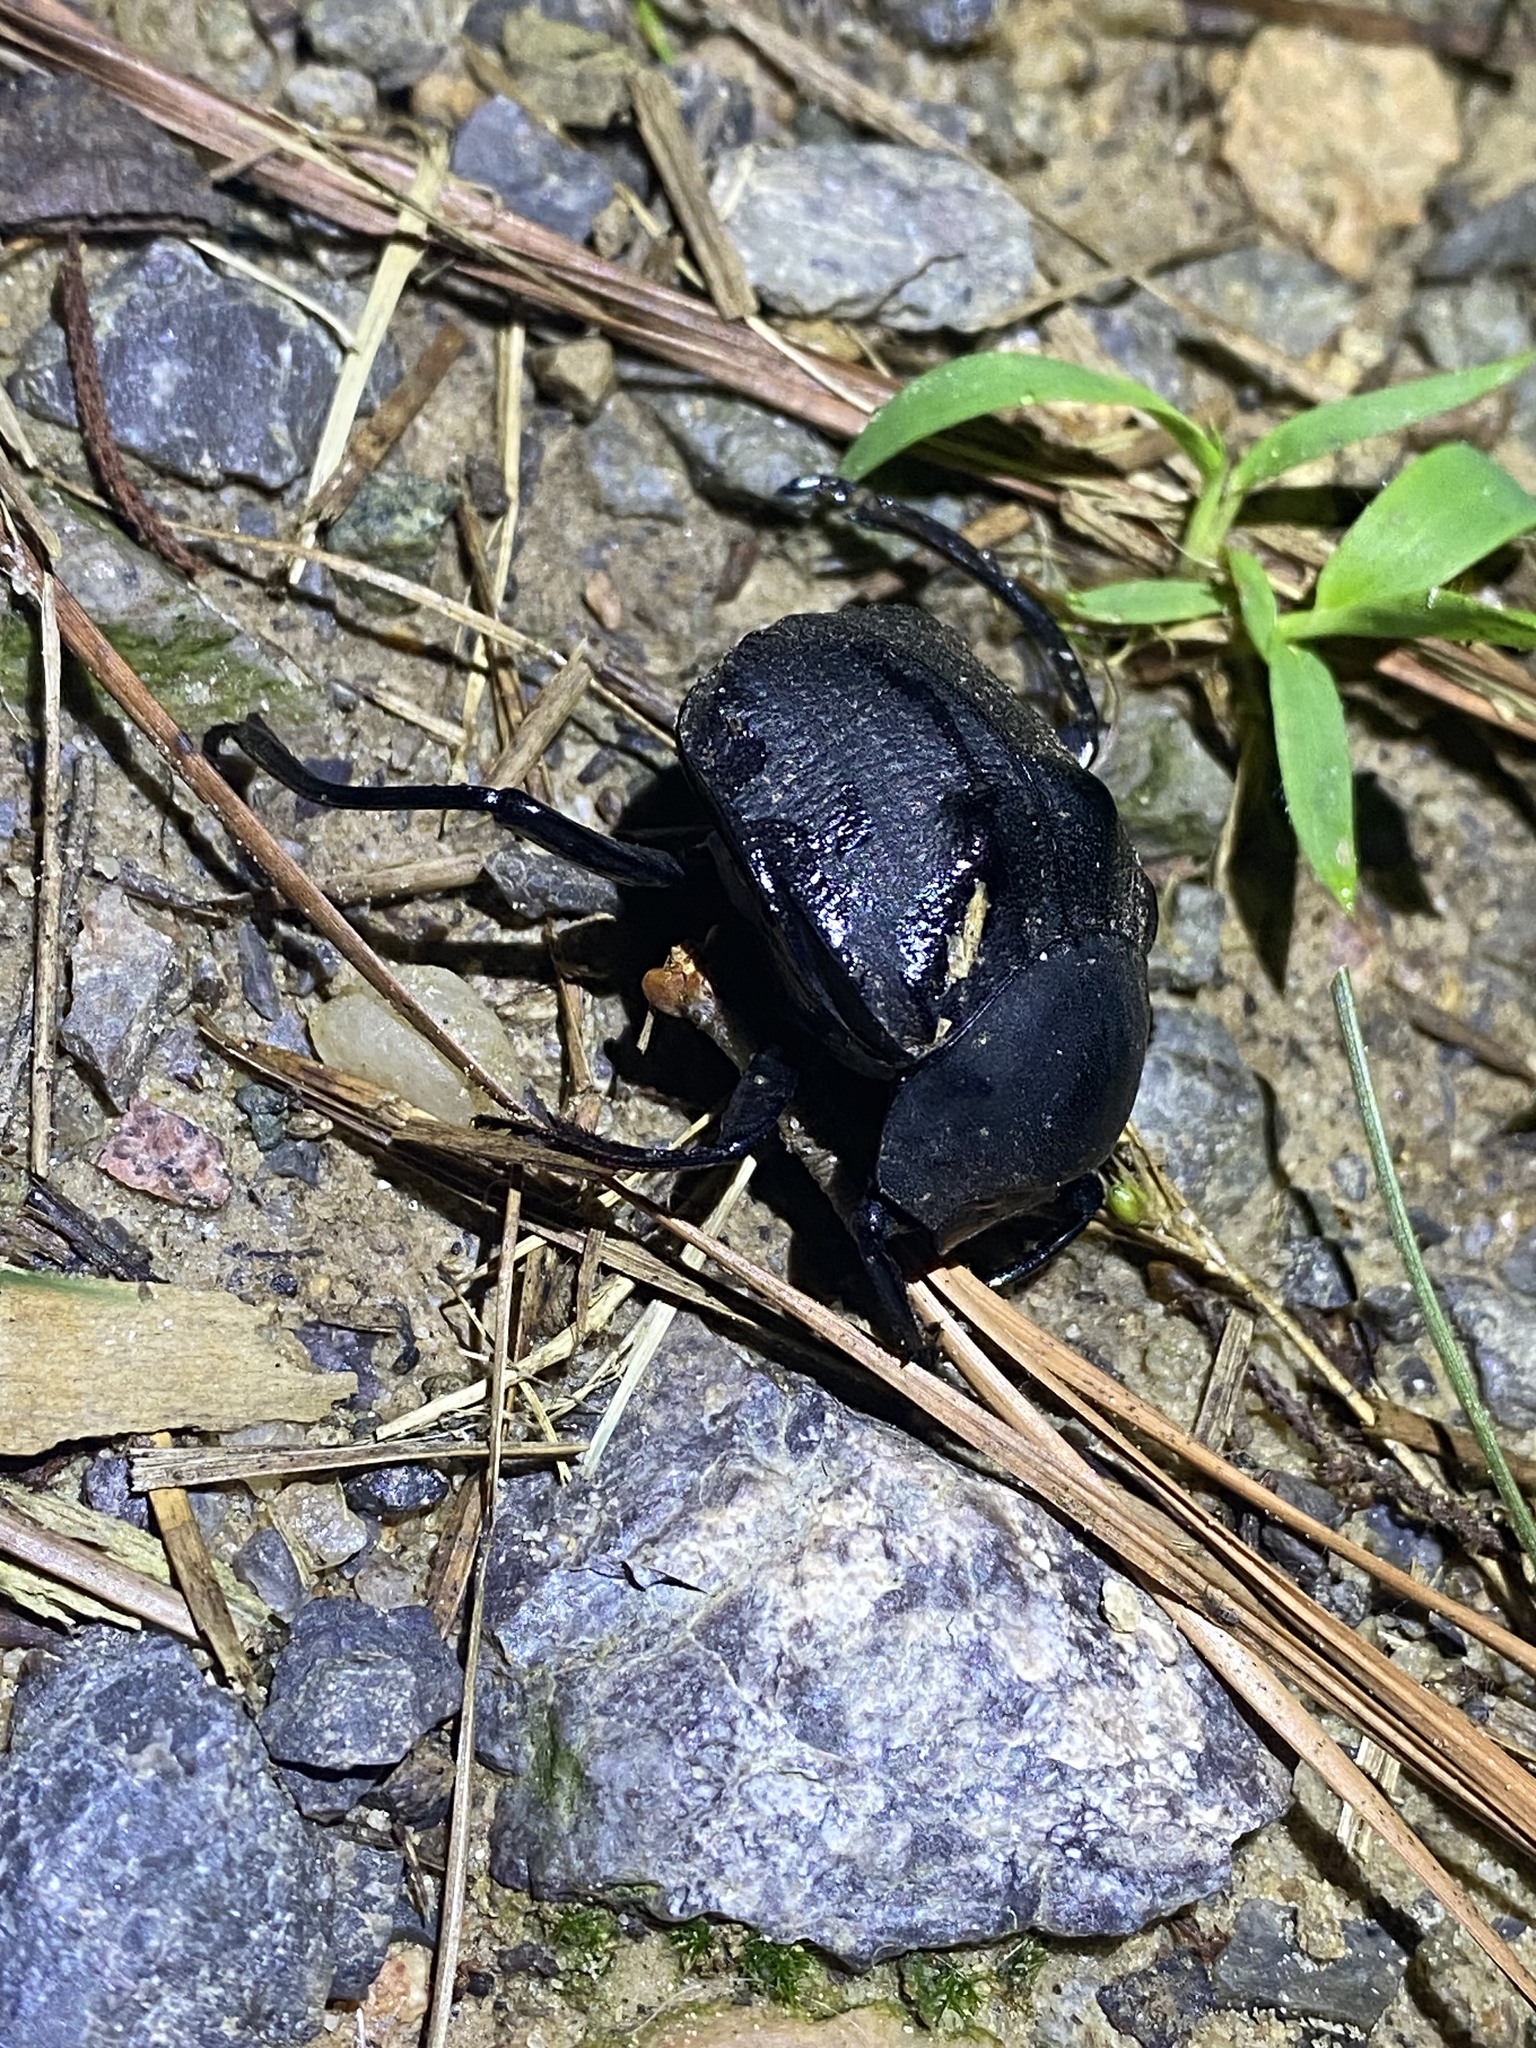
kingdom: Animalia
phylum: Arthropoda
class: Insecta
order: Coleoptera
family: Scarabaeidae
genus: Deltochilum
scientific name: Deltochilum gibbosum
